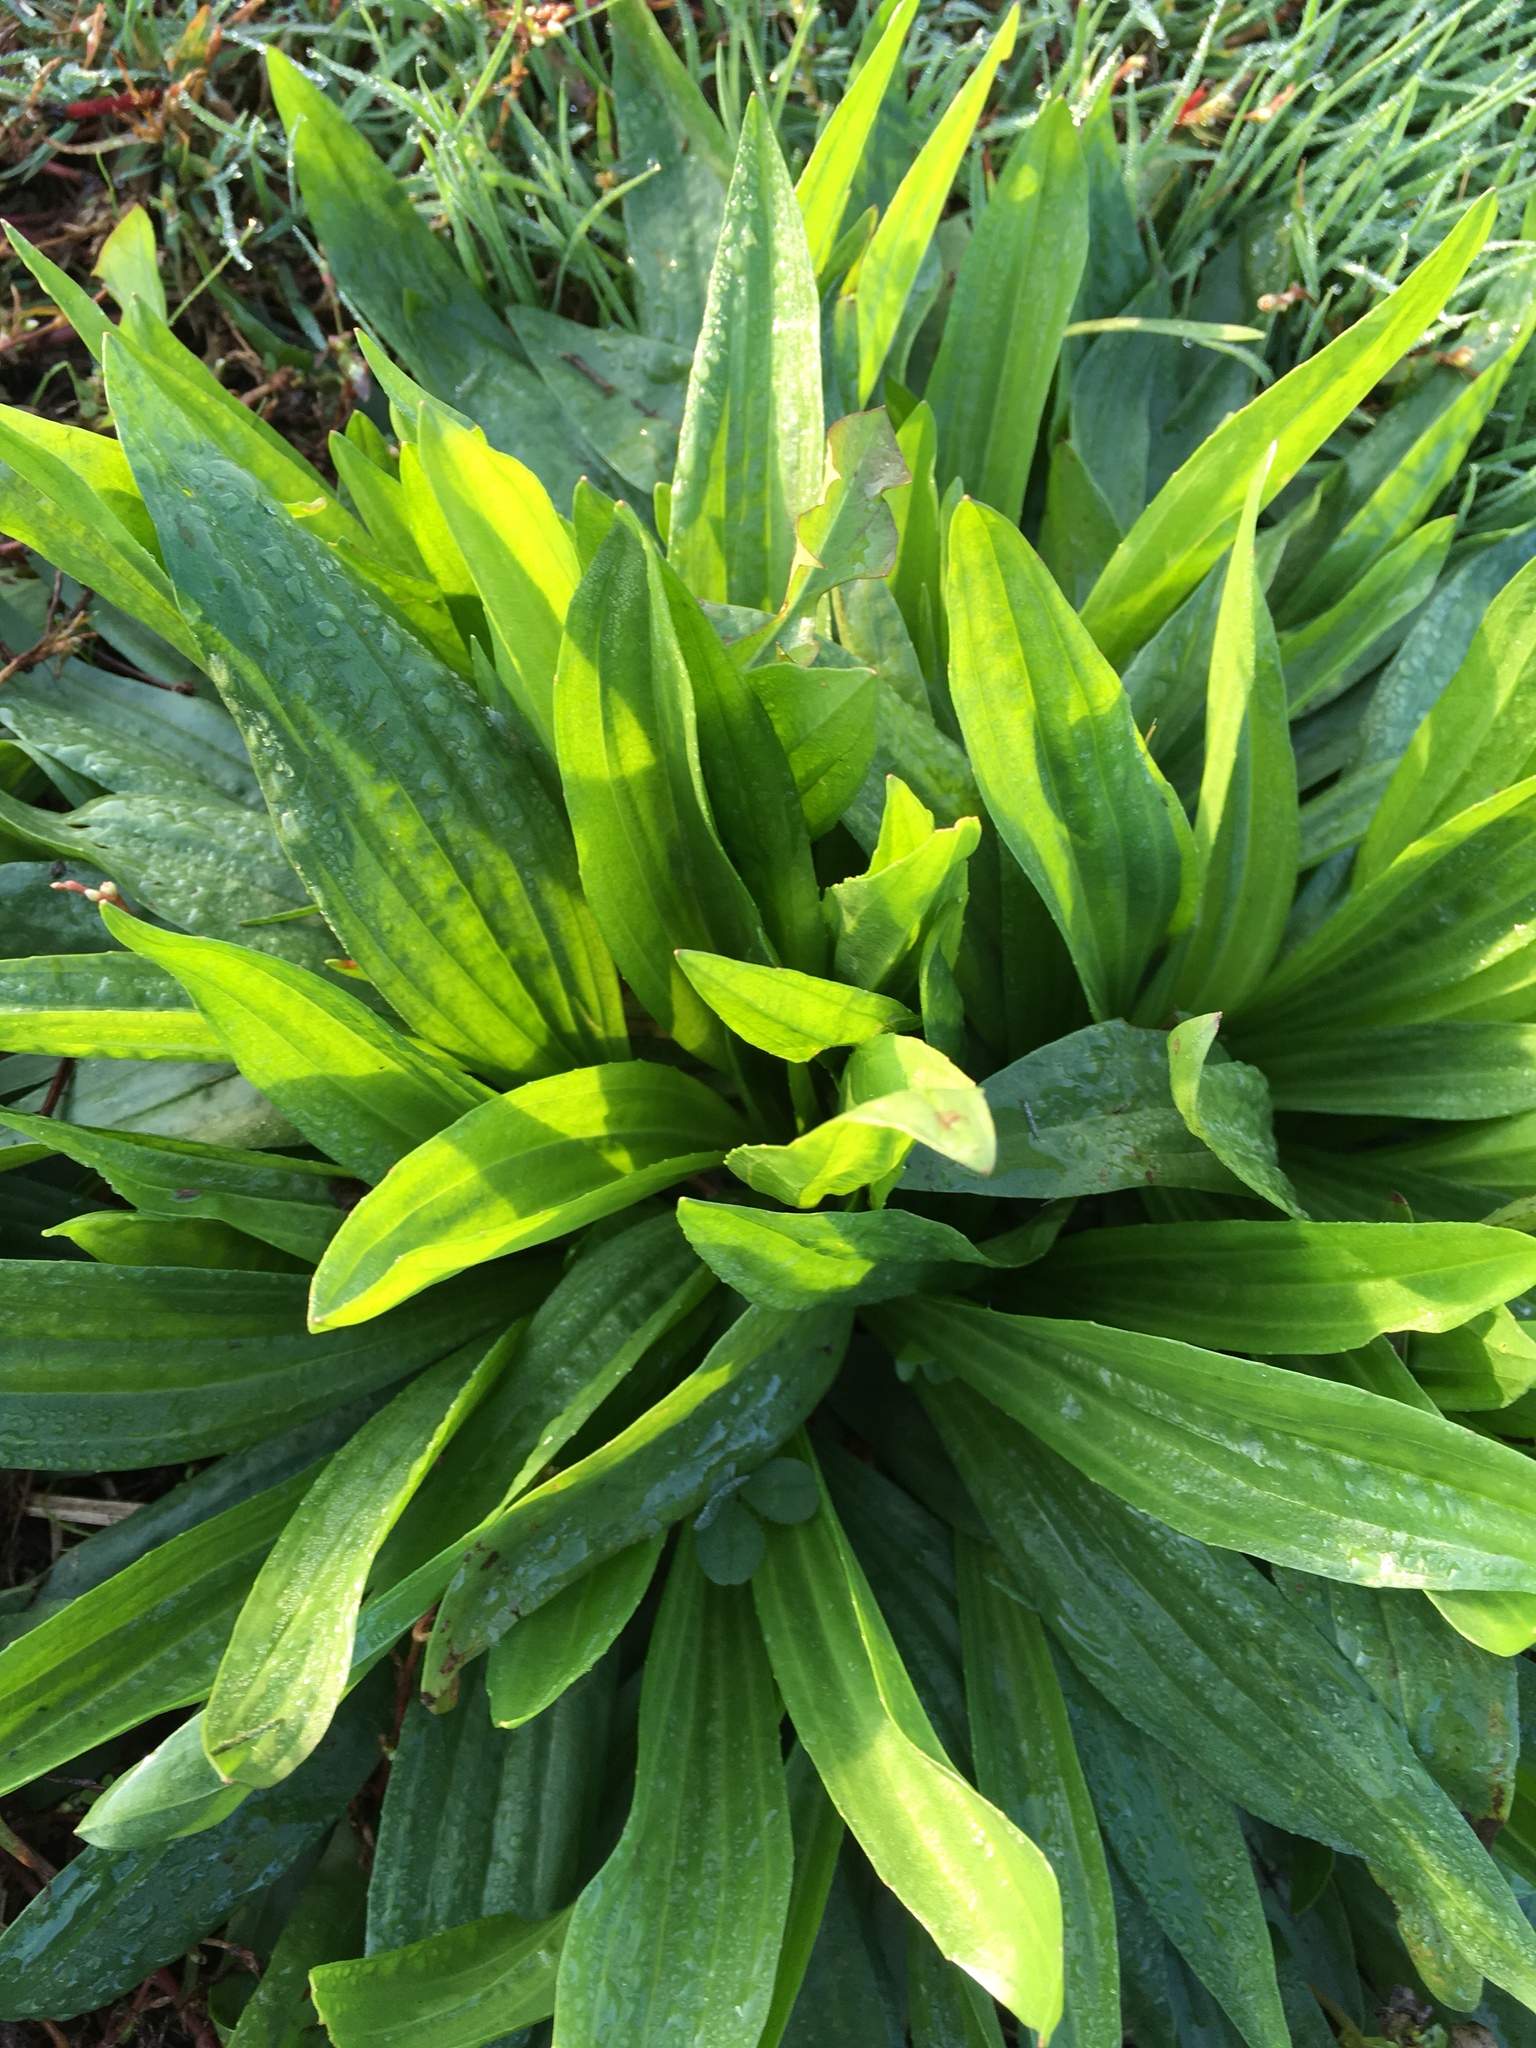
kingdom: Plantae
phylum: Tracheophyta
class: Magnoliopsida
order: Lamiales
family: Plantaginaceae
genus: Plantago
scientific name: Plantago lanceolata
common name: Ribwort plantain
